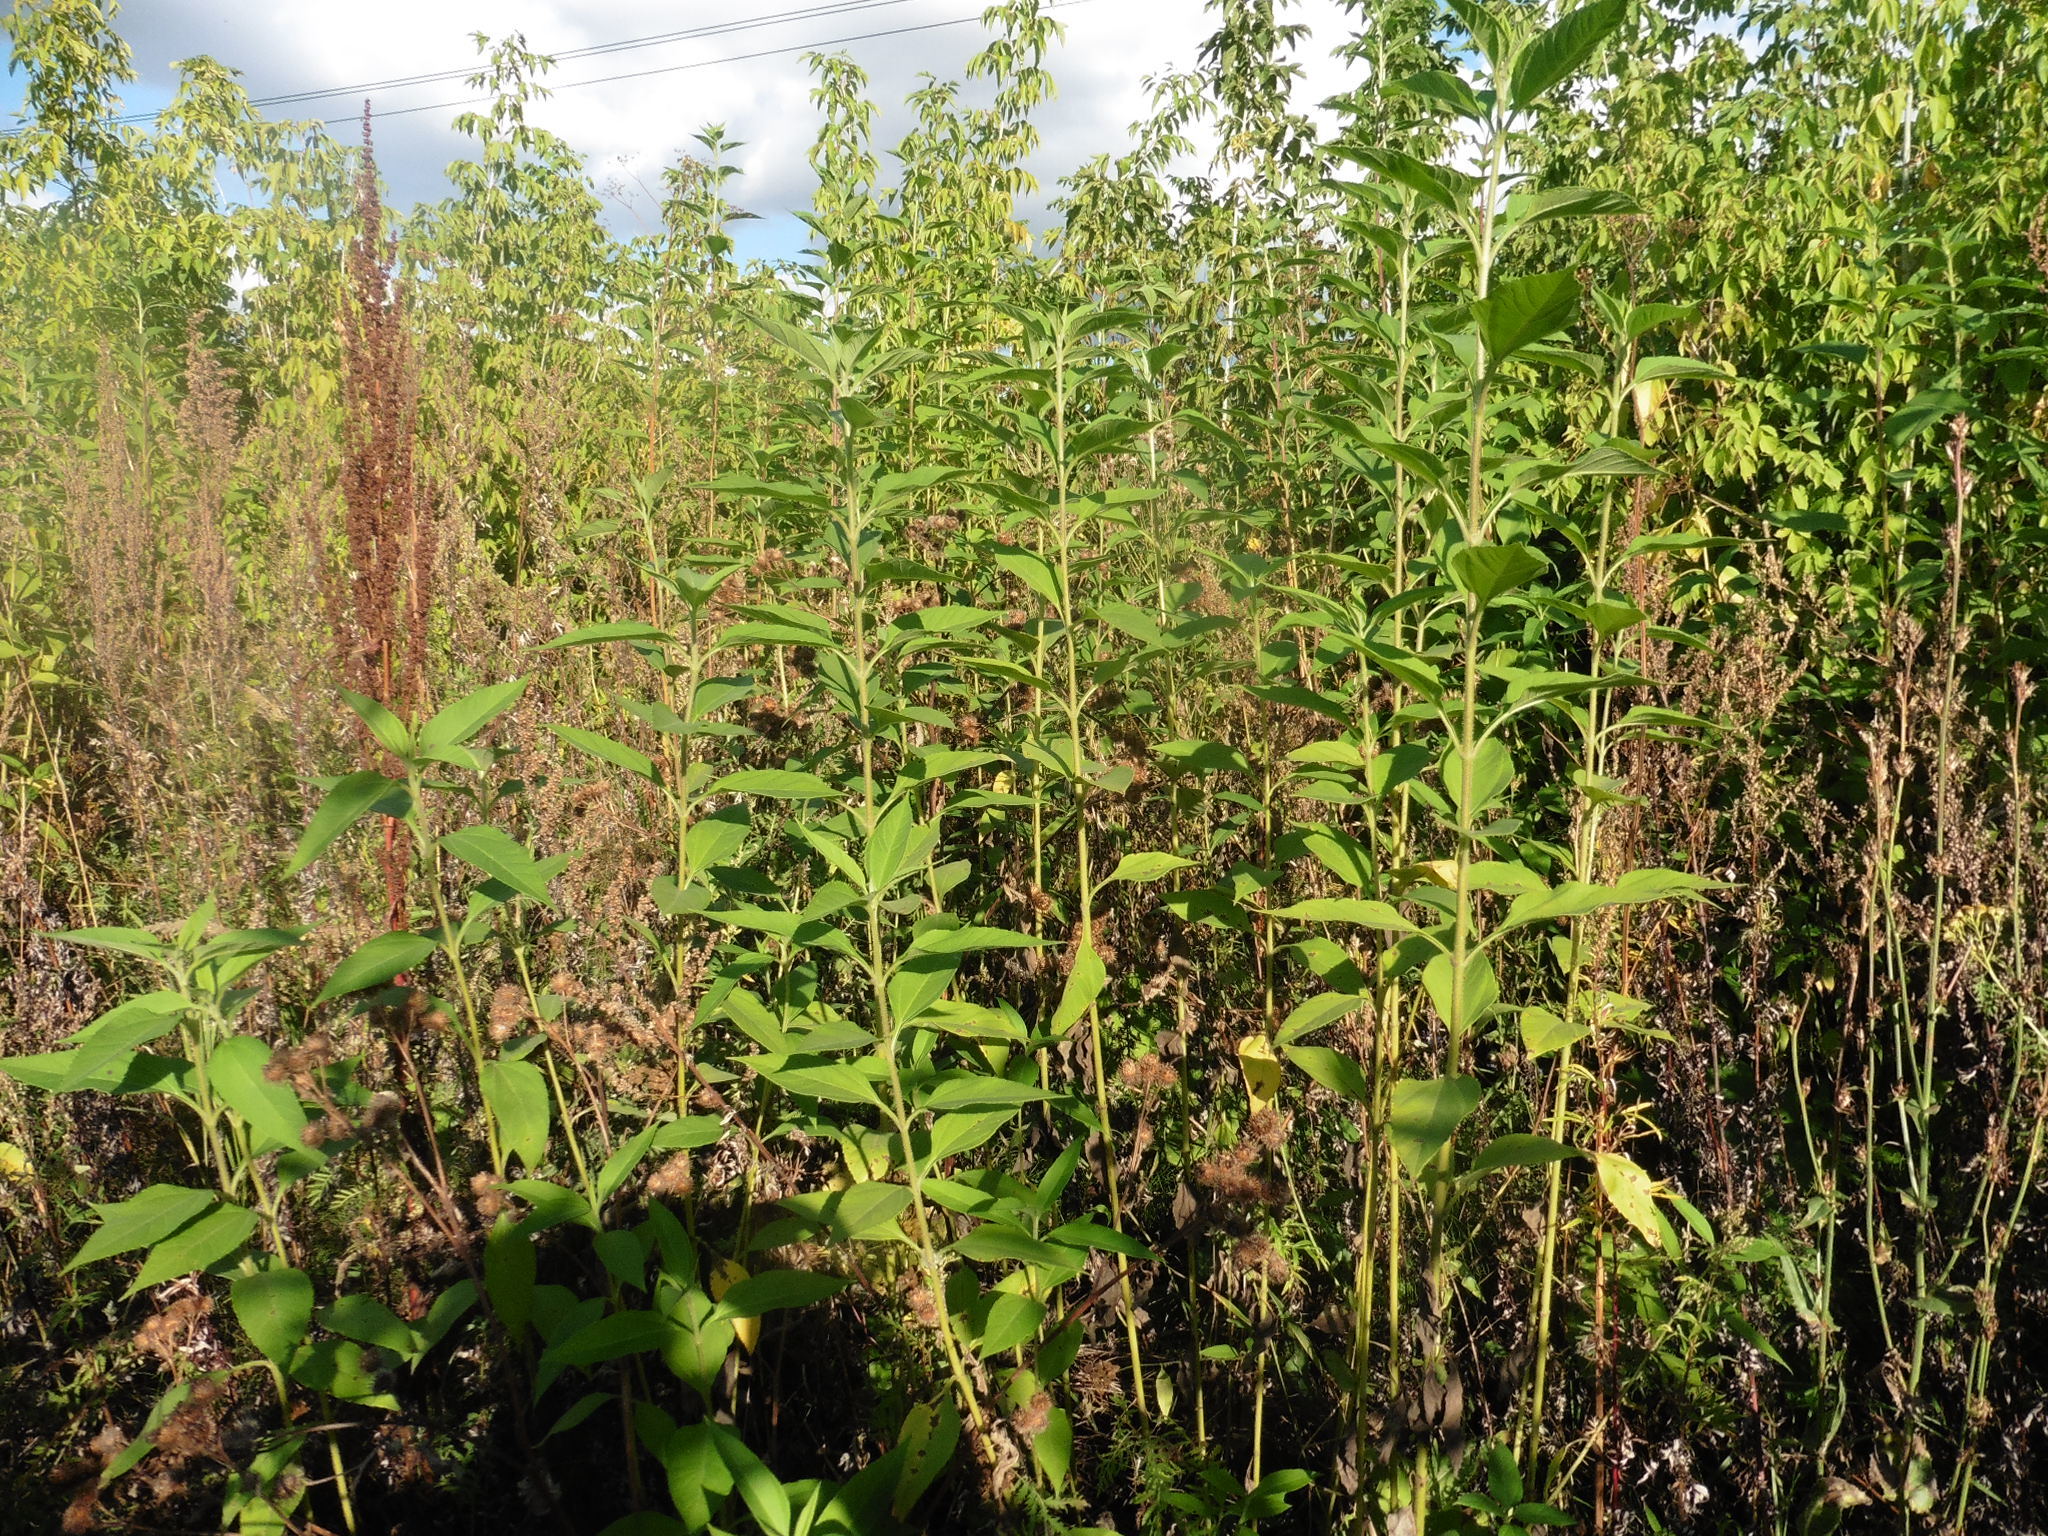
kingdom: Plantae
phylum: Tracheophyta
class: Magnoliopsida
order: Asterales
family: Asteraceae
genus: Helianthus
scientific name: Helianthus tuberosus
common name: Jerusalem artichoke
